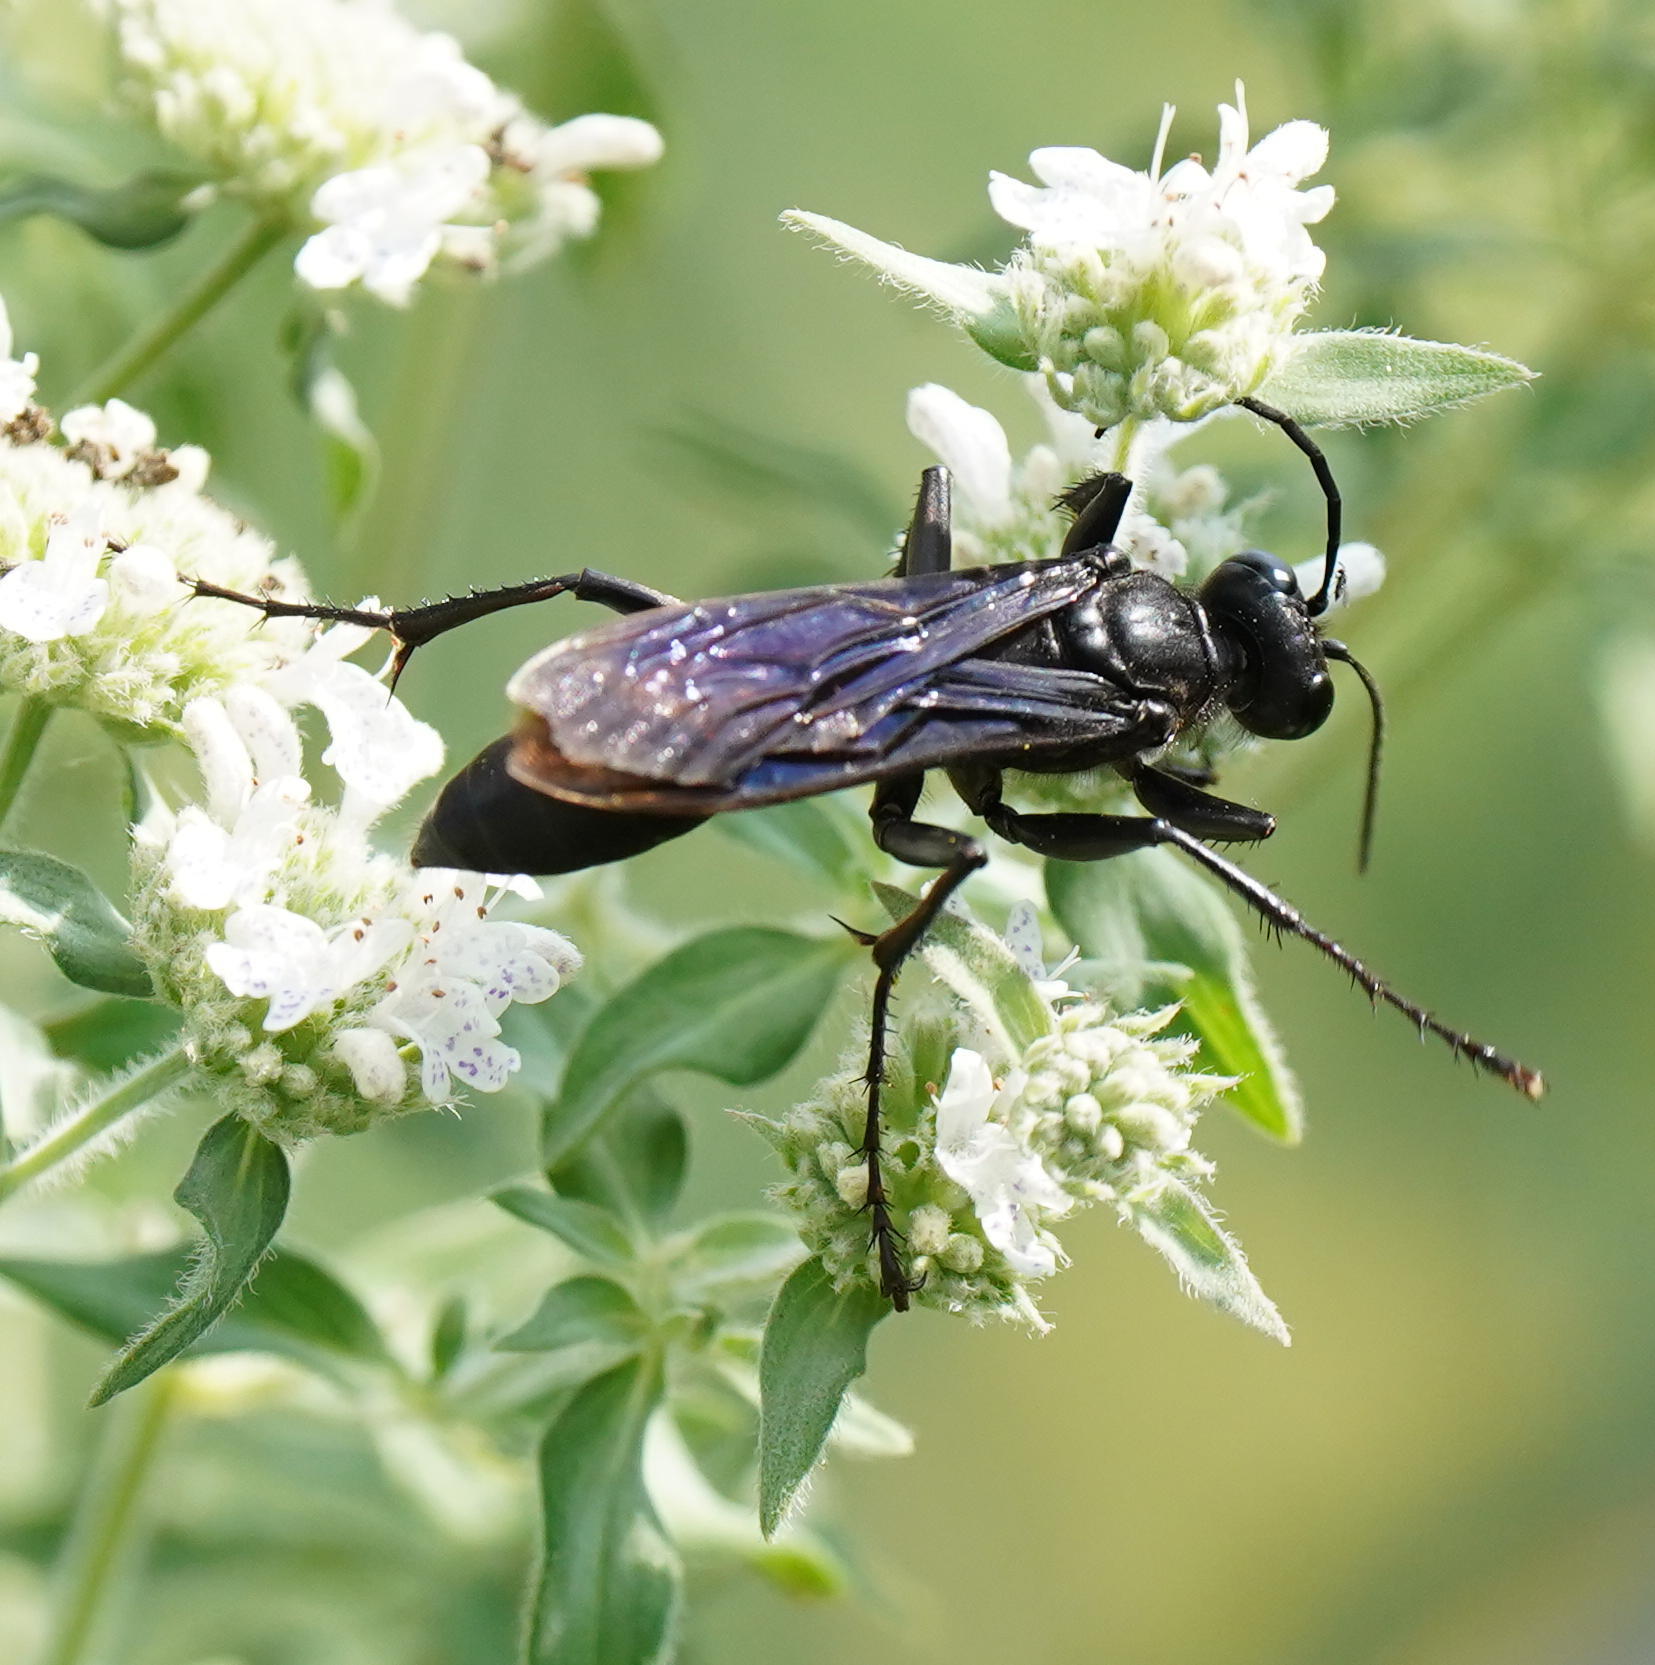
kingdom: Animalia
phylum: Arthropoda
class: Insecta
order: Hymenoptera
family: Sphecidae
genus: Sphex
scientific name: Sphex pensylvanicus
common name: Great black digger wasp
